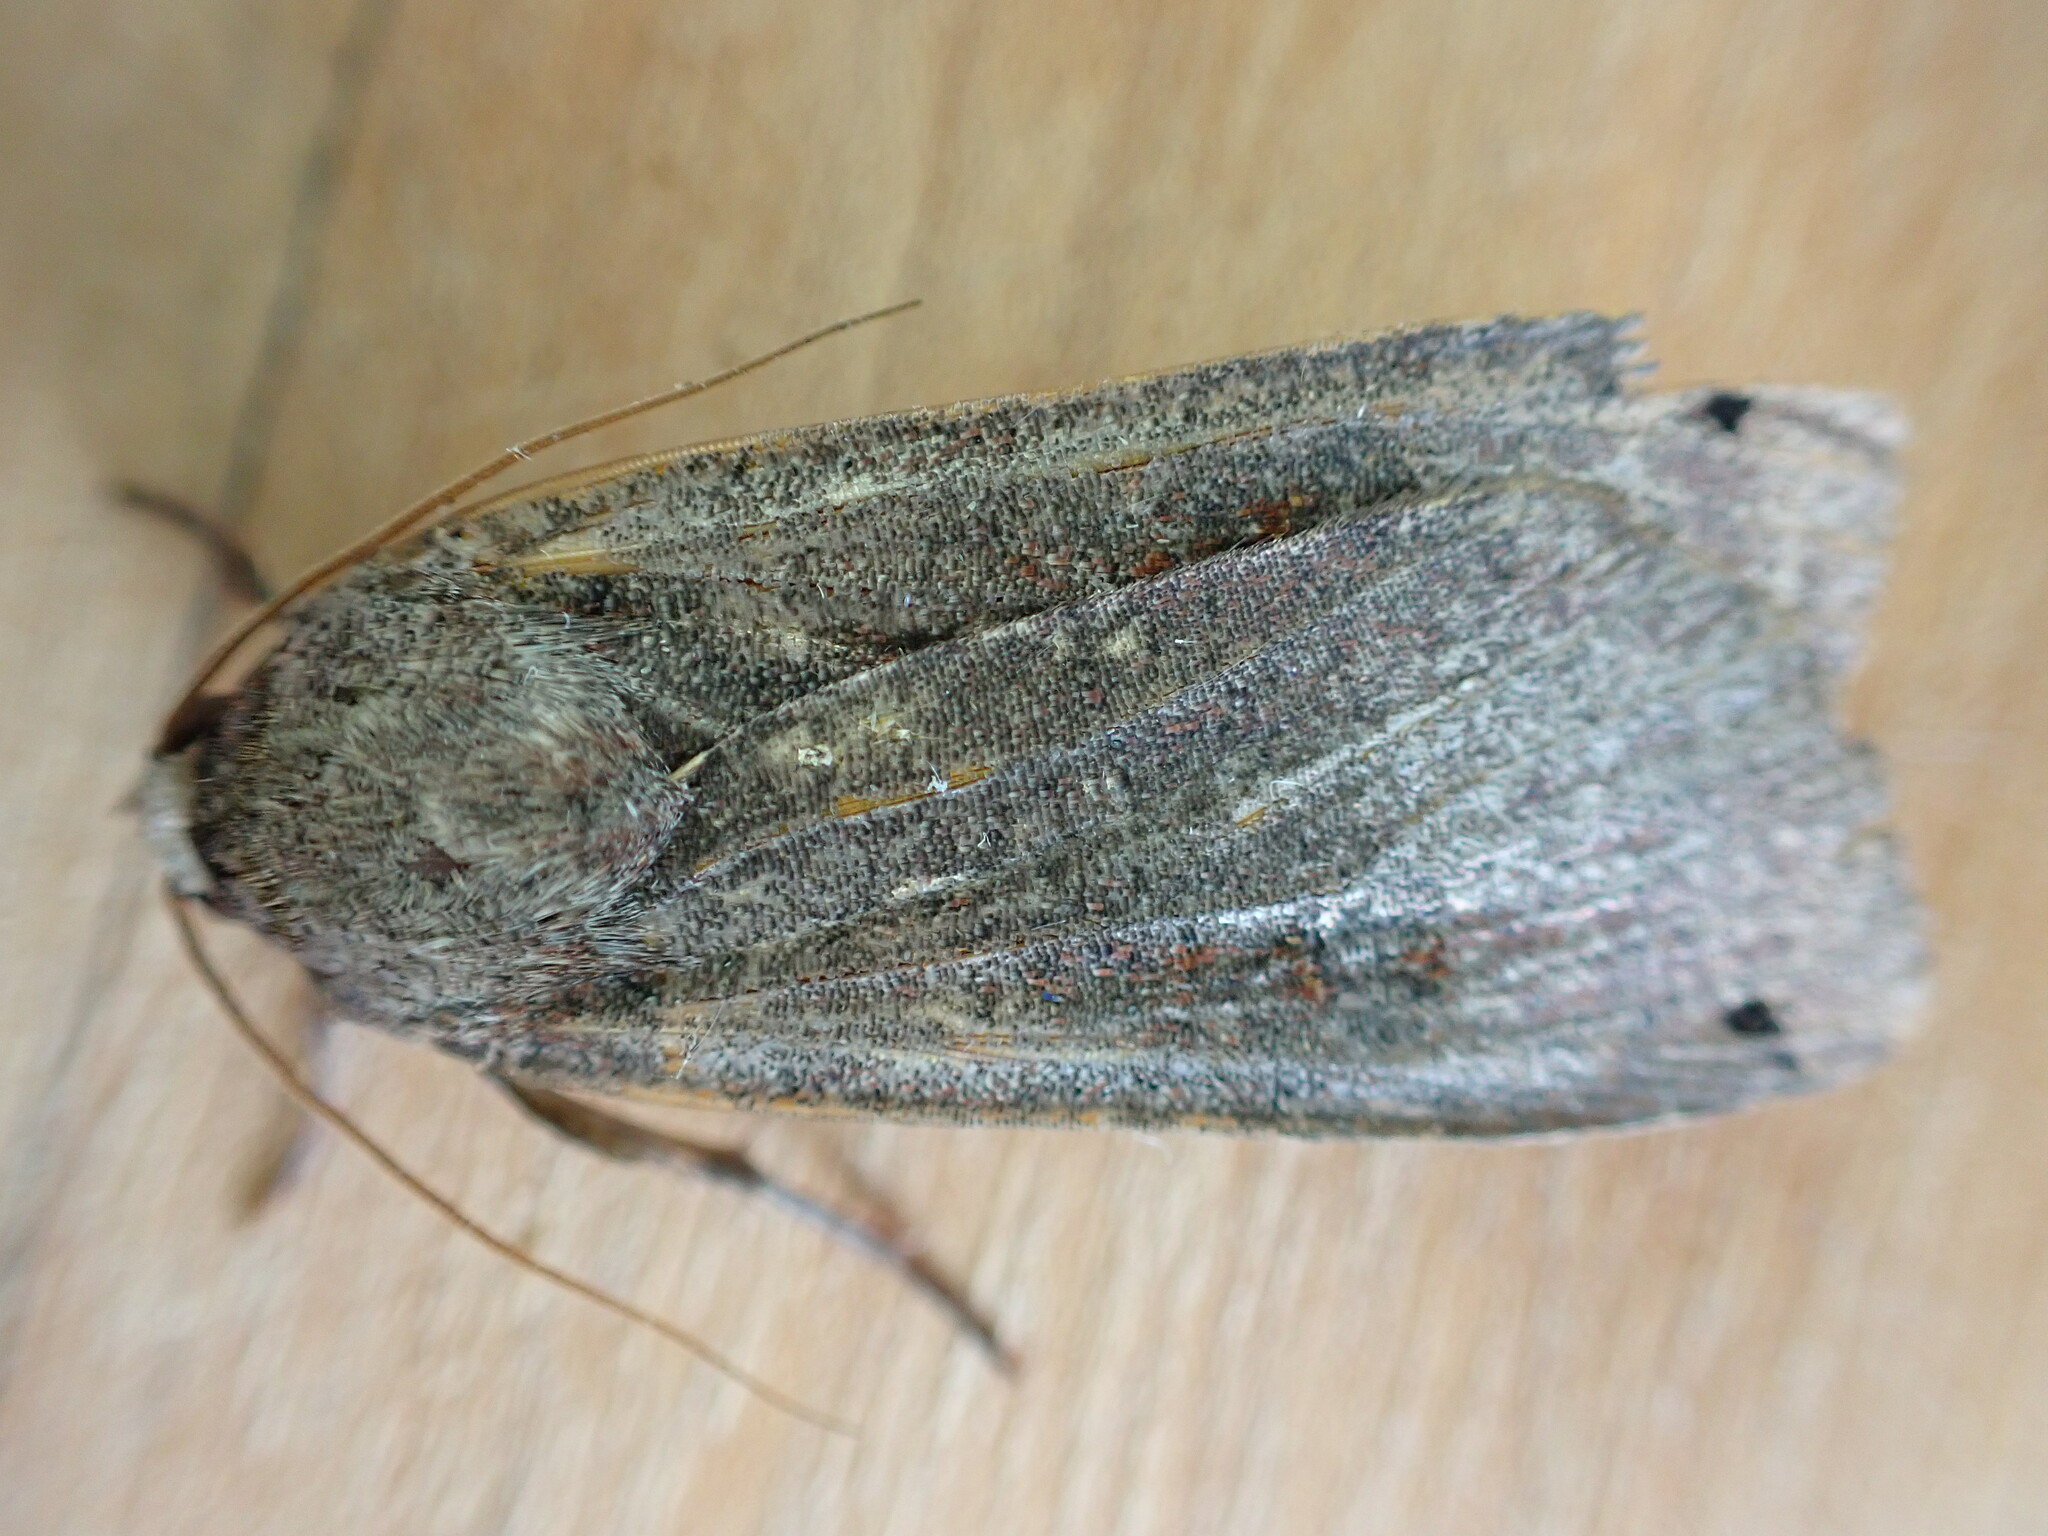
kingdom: Animalia
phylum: Arthropoda
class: Insecta
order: Lepidoptera
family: Noctuidae
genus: Noctua
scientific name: Noctua pronuba
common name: Large yellow underwing
